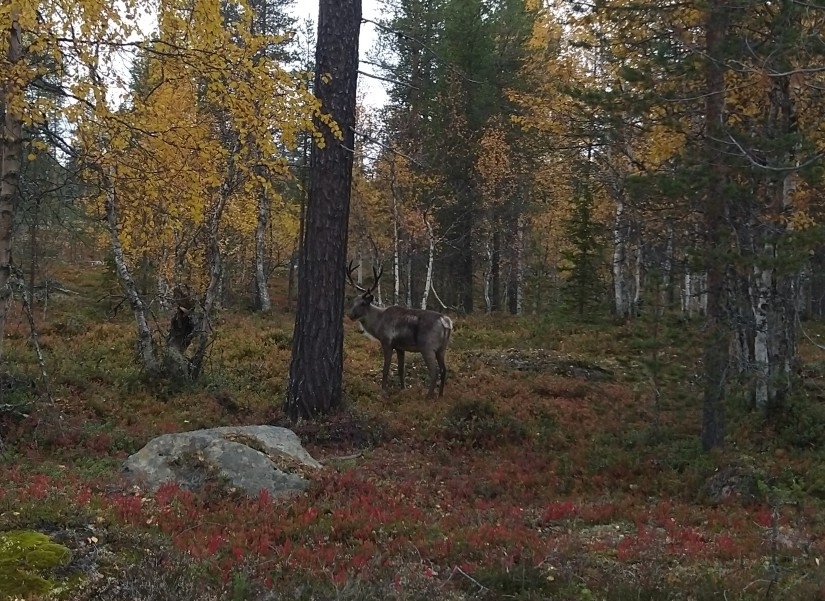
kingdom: Animalia
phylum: Chordata
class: Mammalia
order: Artiodactyla
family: Cervidae
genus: Rangifer
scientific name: Rangifer tarandus
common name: Reindeer
